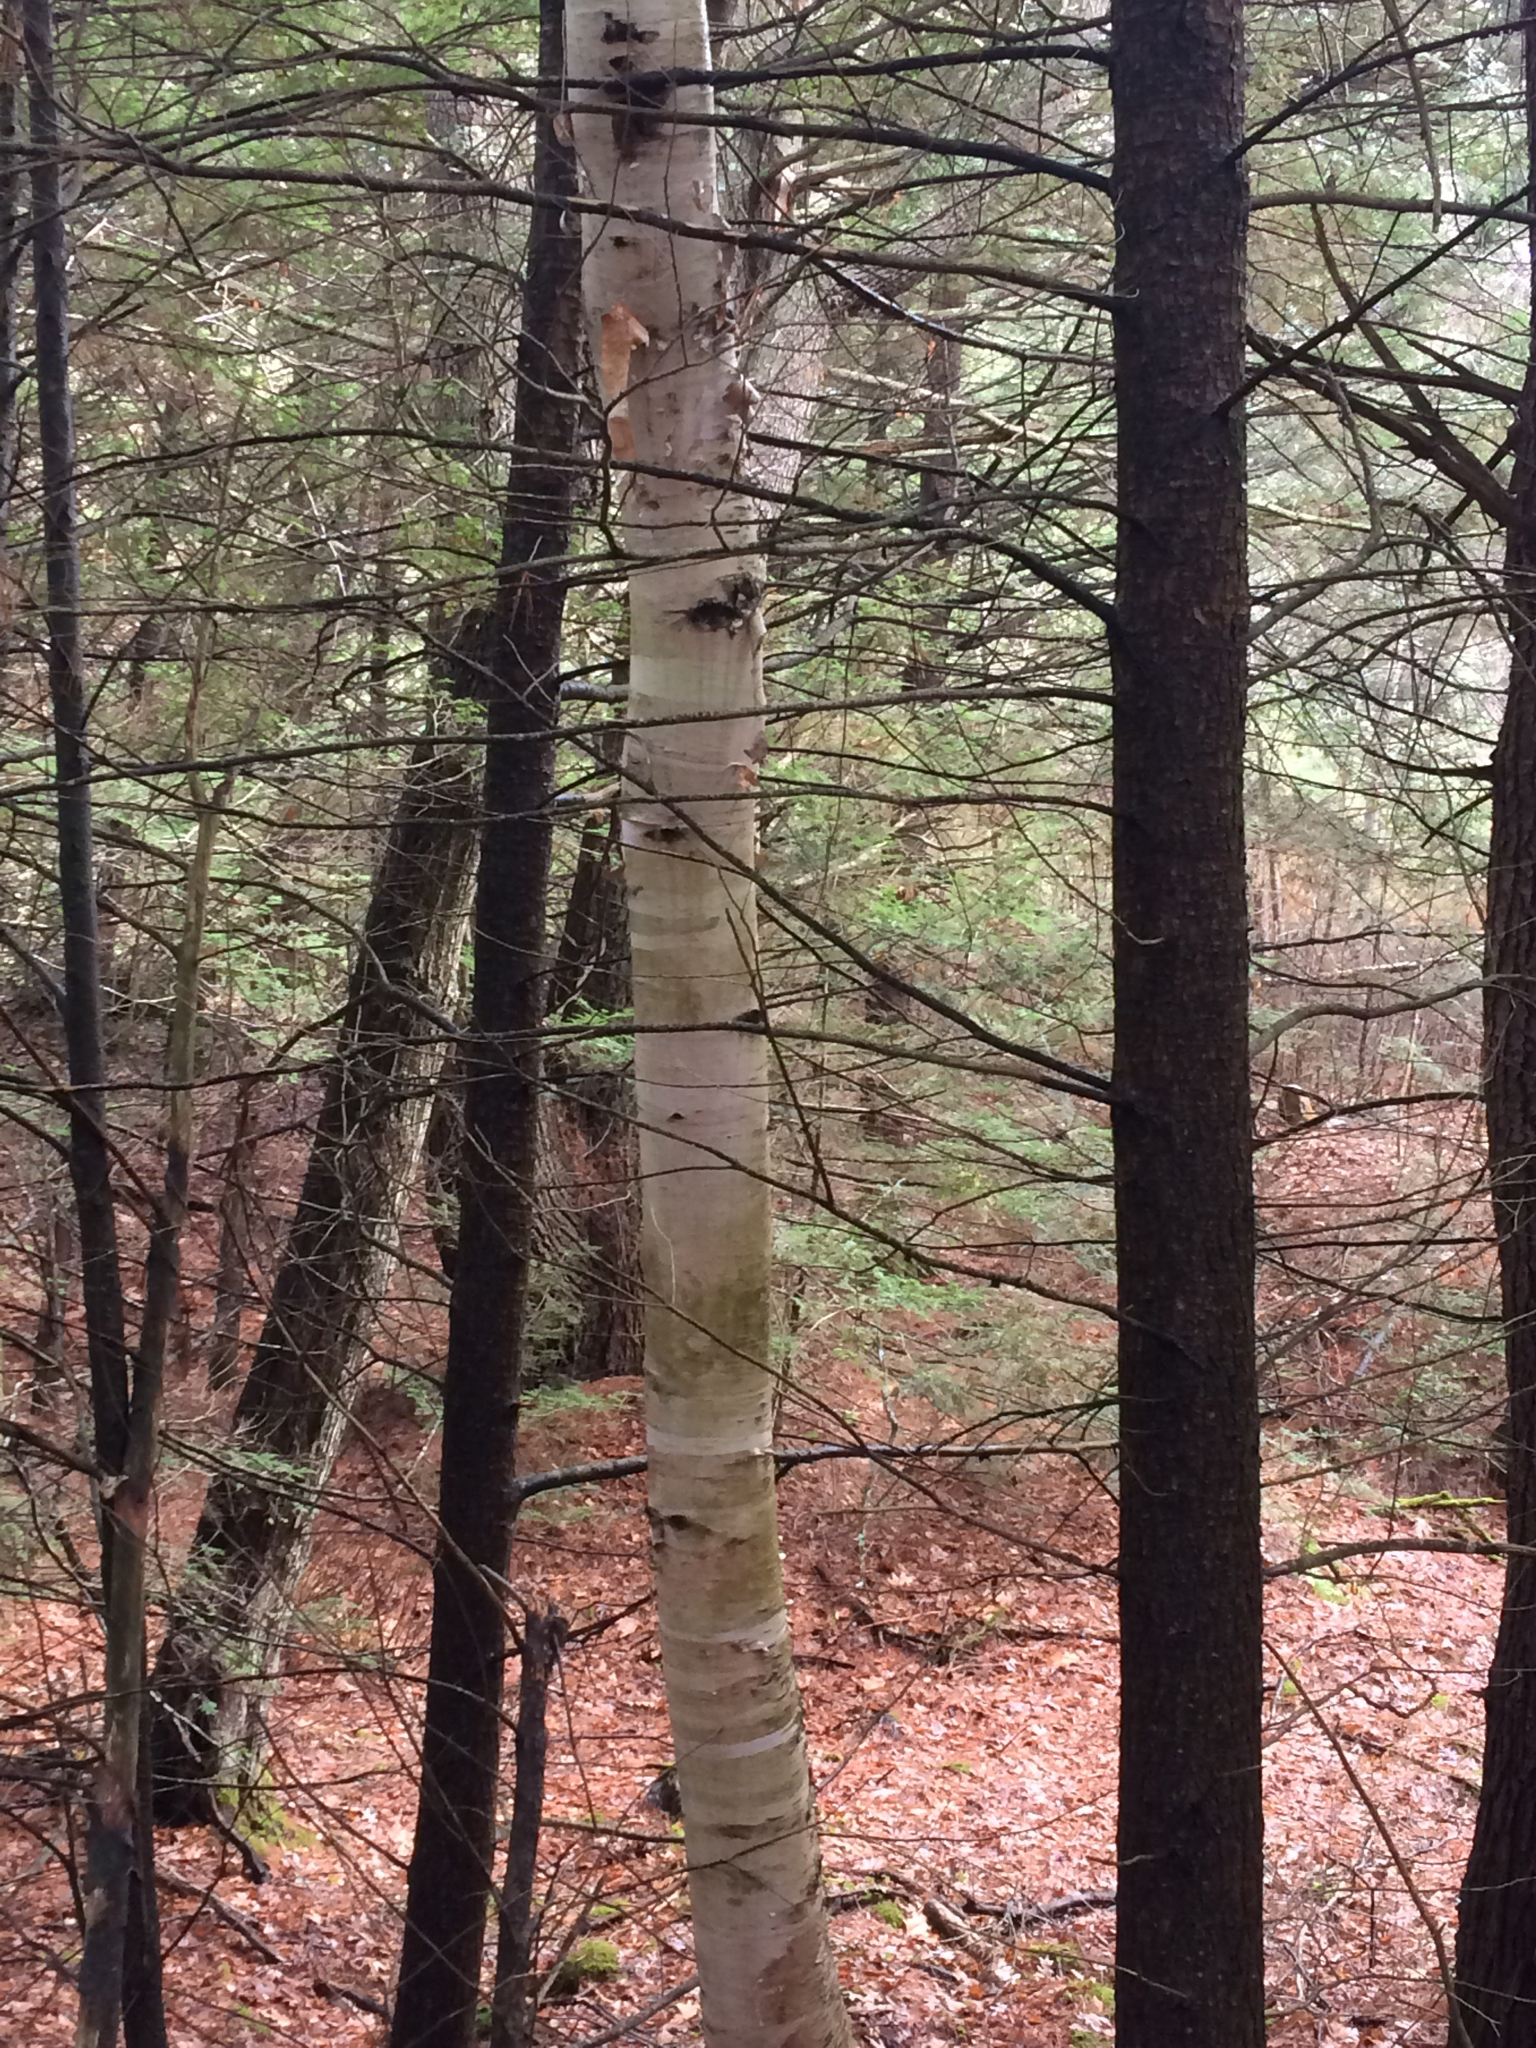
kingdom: Plantae
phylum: Tracheophyta
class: Magnoliopsida
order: Fagales
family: Betulaceae
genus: Betula
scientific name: Betula papyrifera
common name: Paper birch
